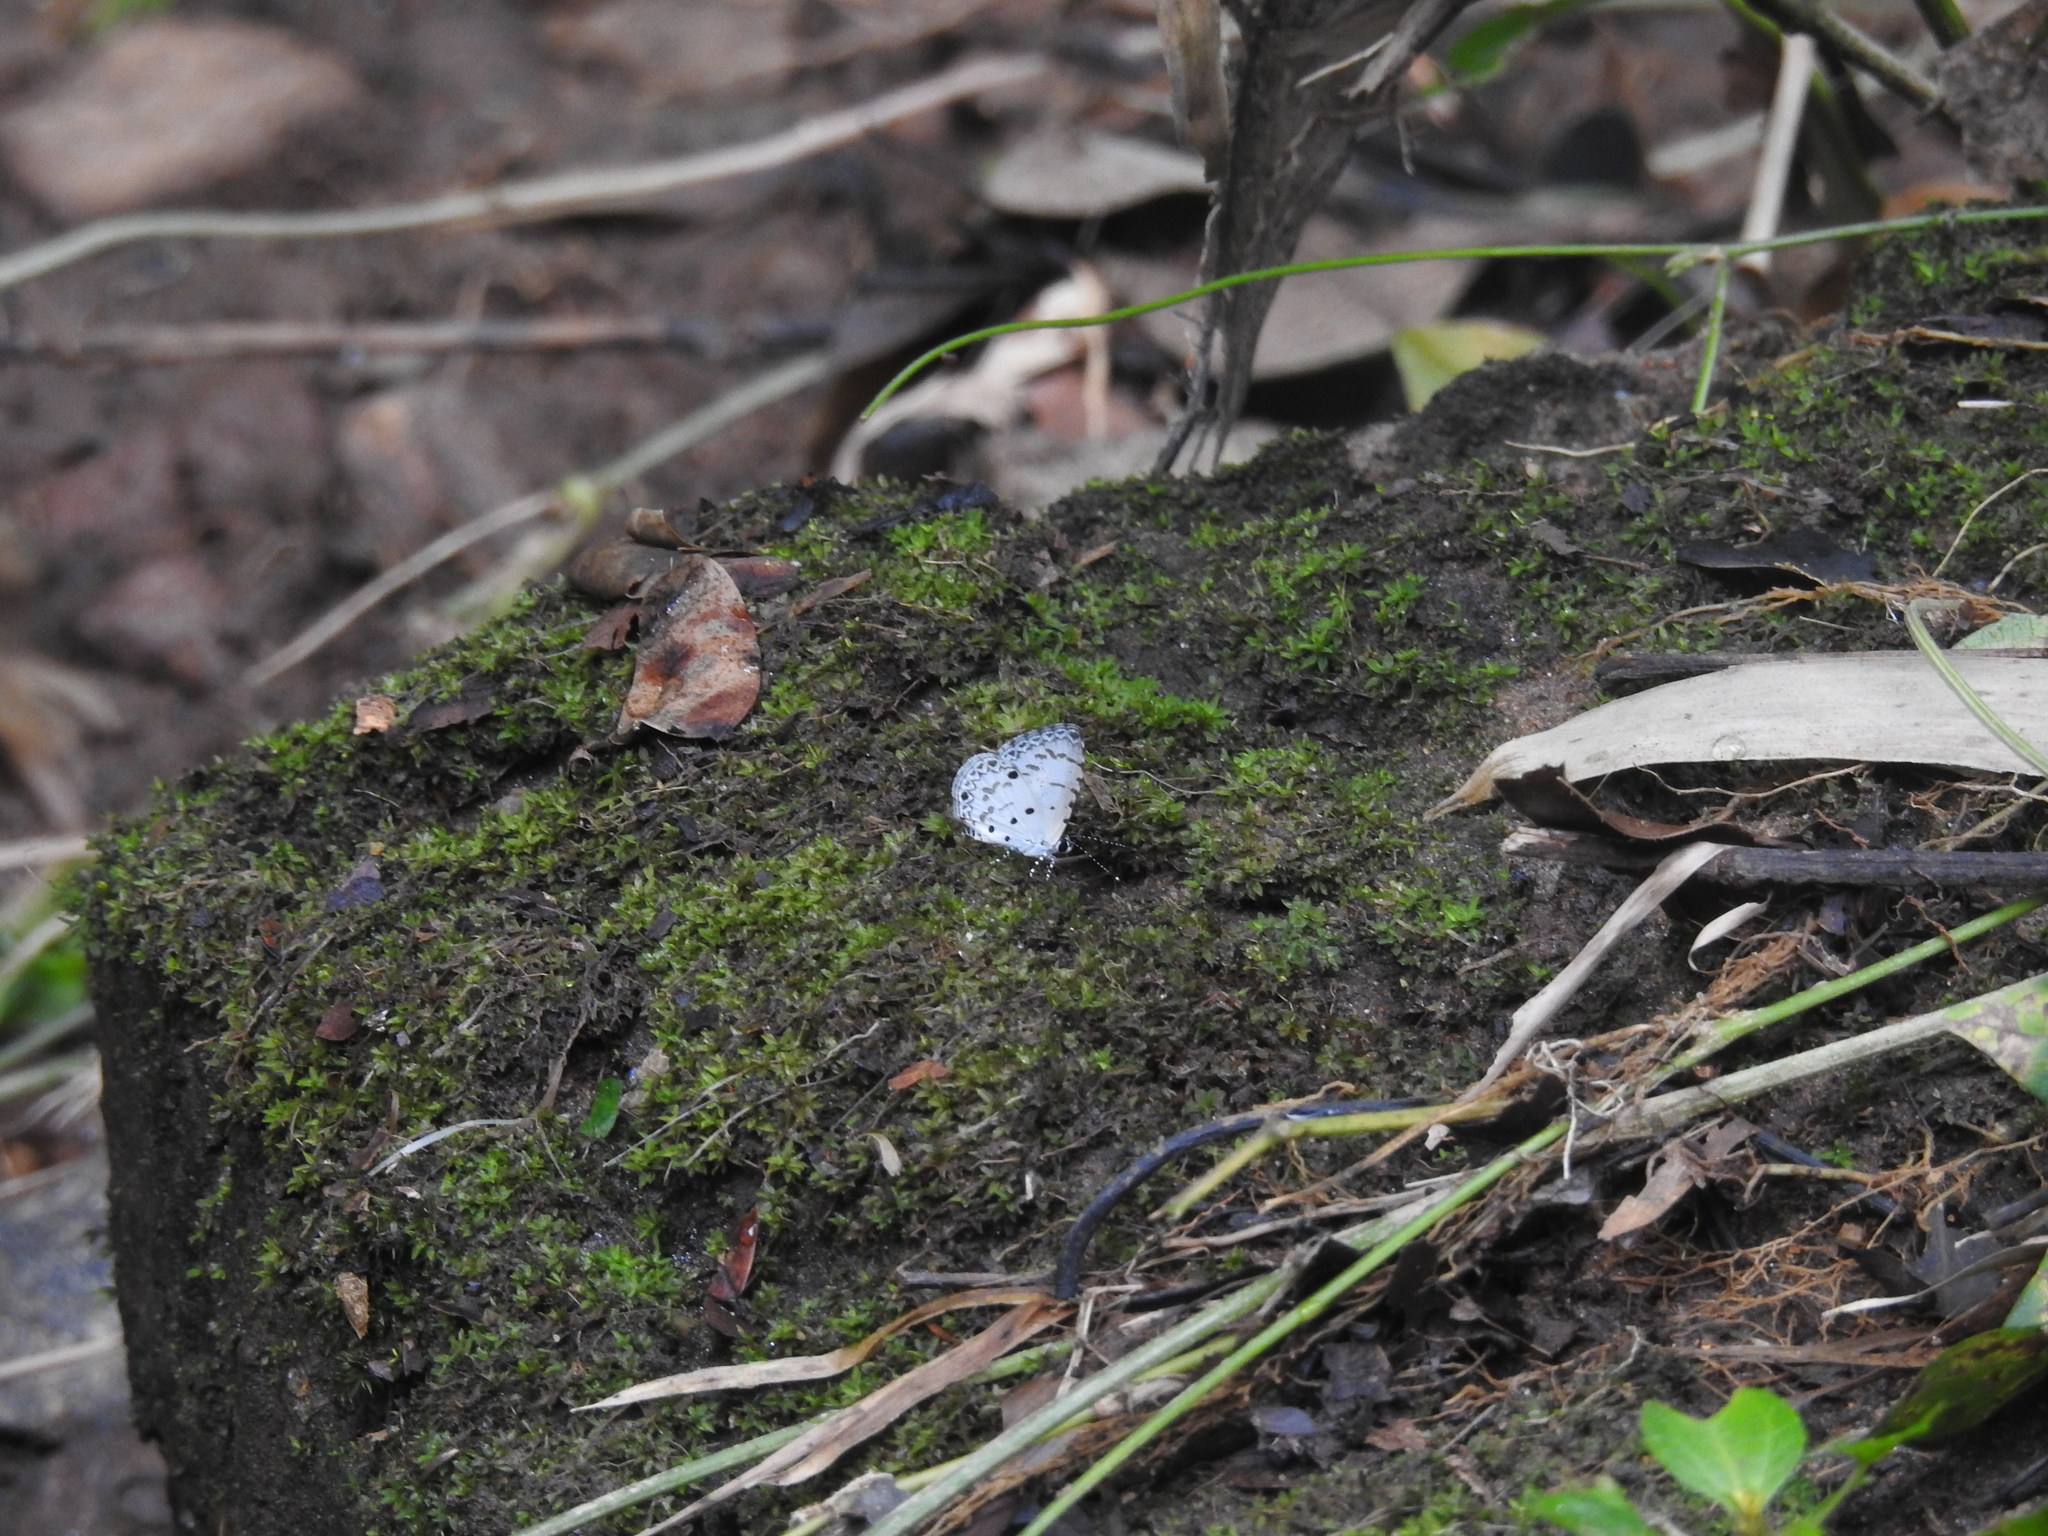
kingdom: Animalia
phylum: Arthropoda
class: Insecta
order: Lepidoptera
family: Lycaenidae
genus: Megisba
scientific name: Megisba malaya
